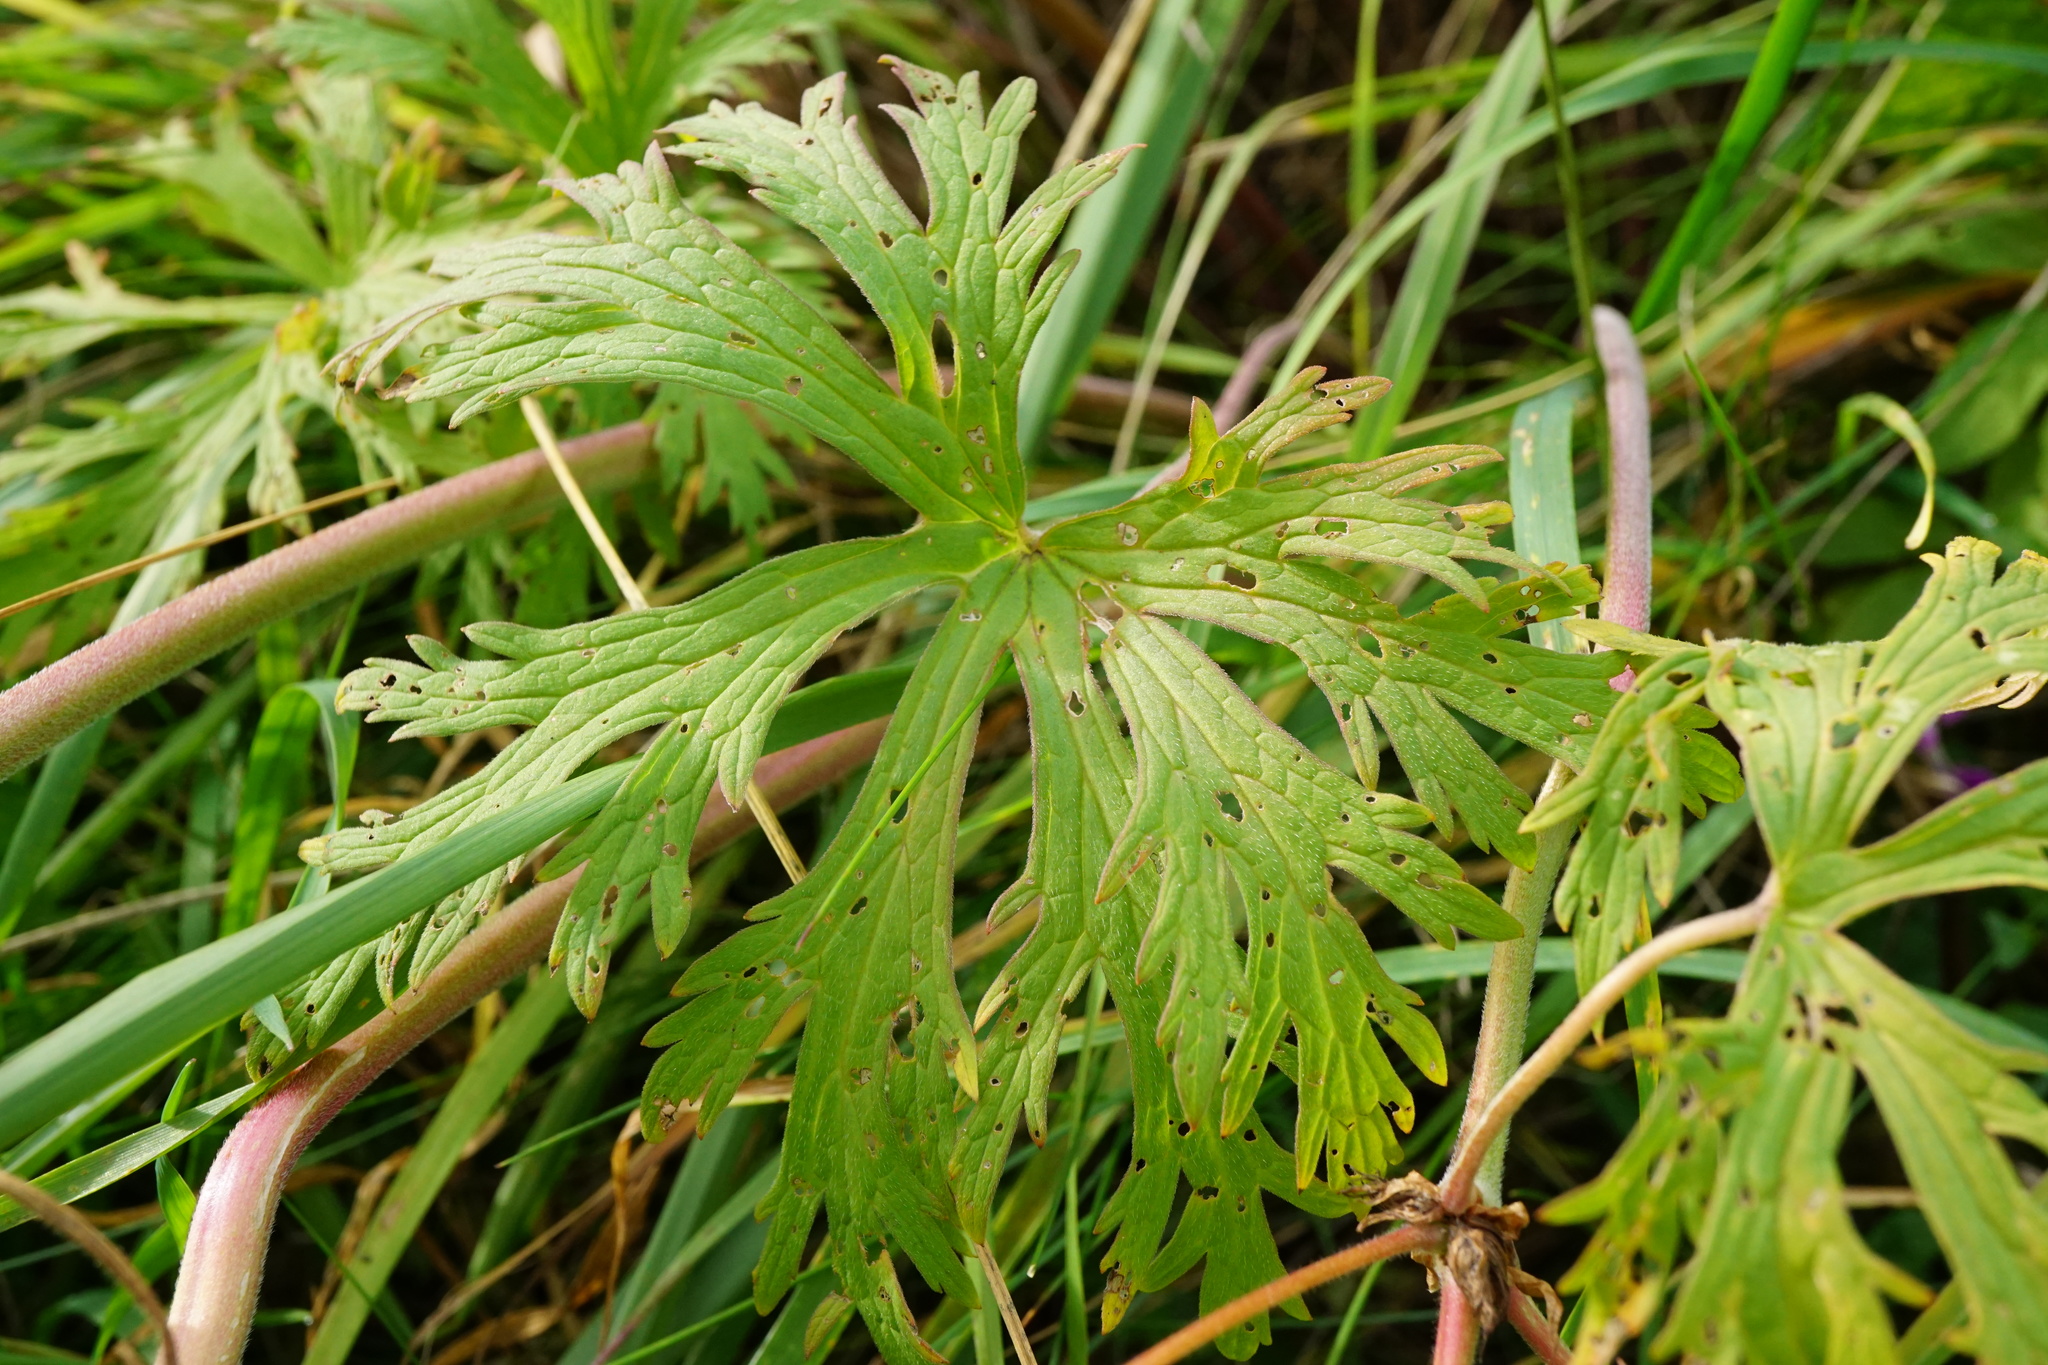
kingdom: Plantae
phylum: Tracheophyta
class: Magnoliopsida
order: Geraniales
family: Geraniaceae
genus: Geranium
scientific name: Geranium pratense
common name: Meadow crane's-bill
